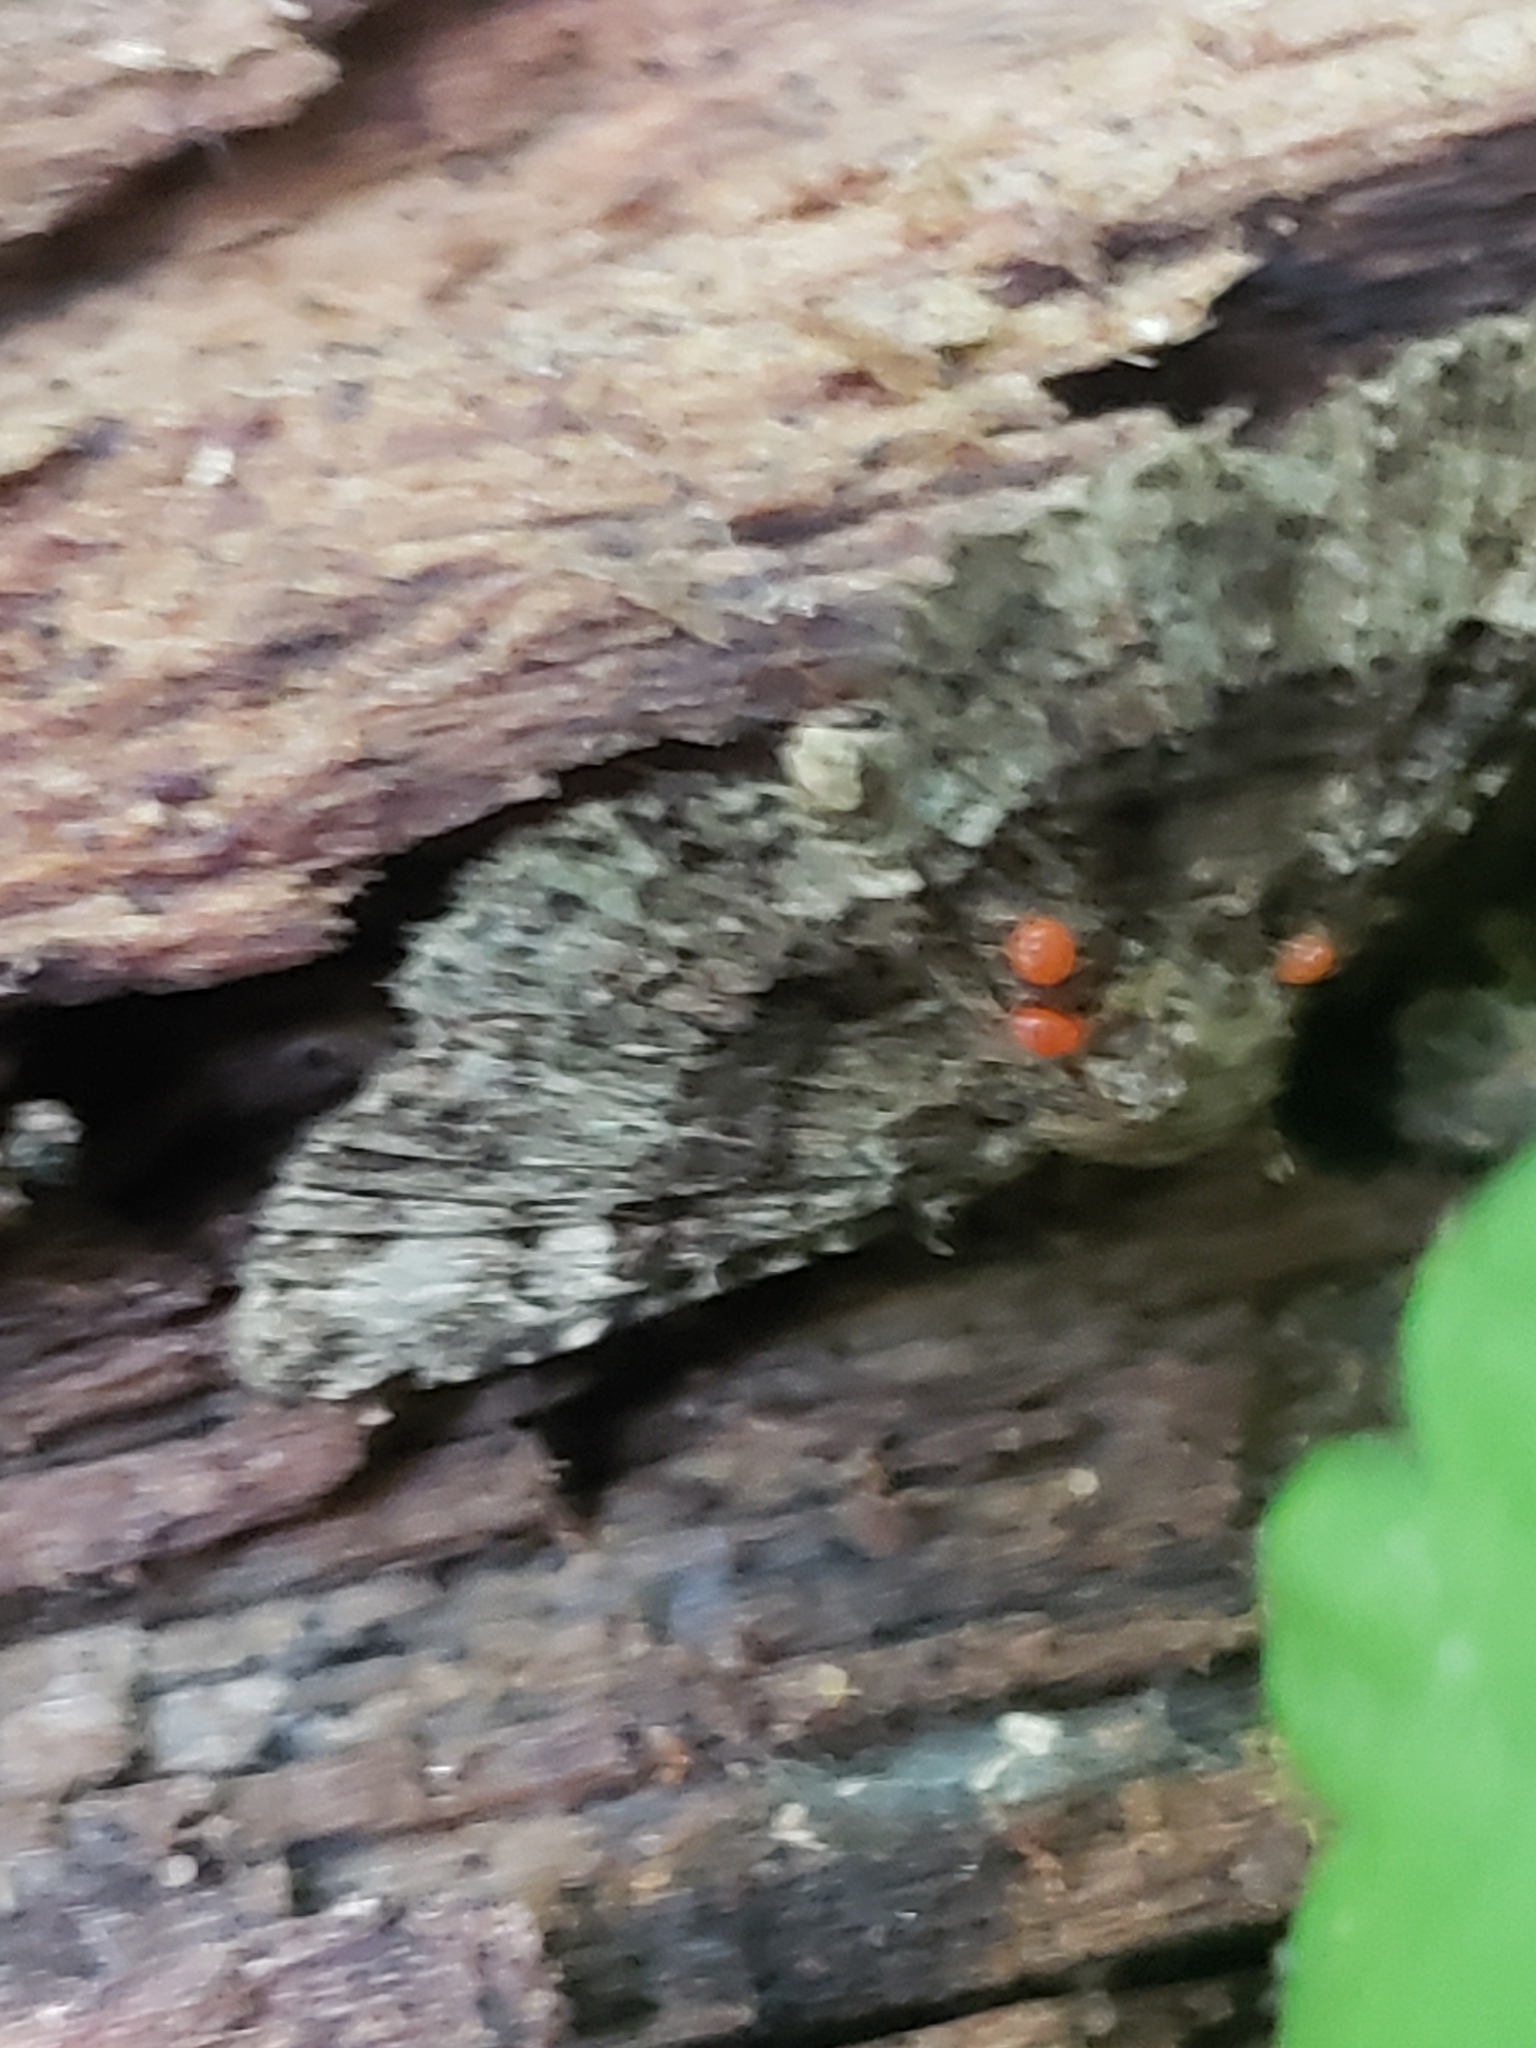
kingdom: Animalia
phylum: Arthropoda
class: Insecta
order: Lepidoptera
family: Erebidae
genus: Metalectra
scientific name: Metalectra discalis
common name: Common fungus moth
